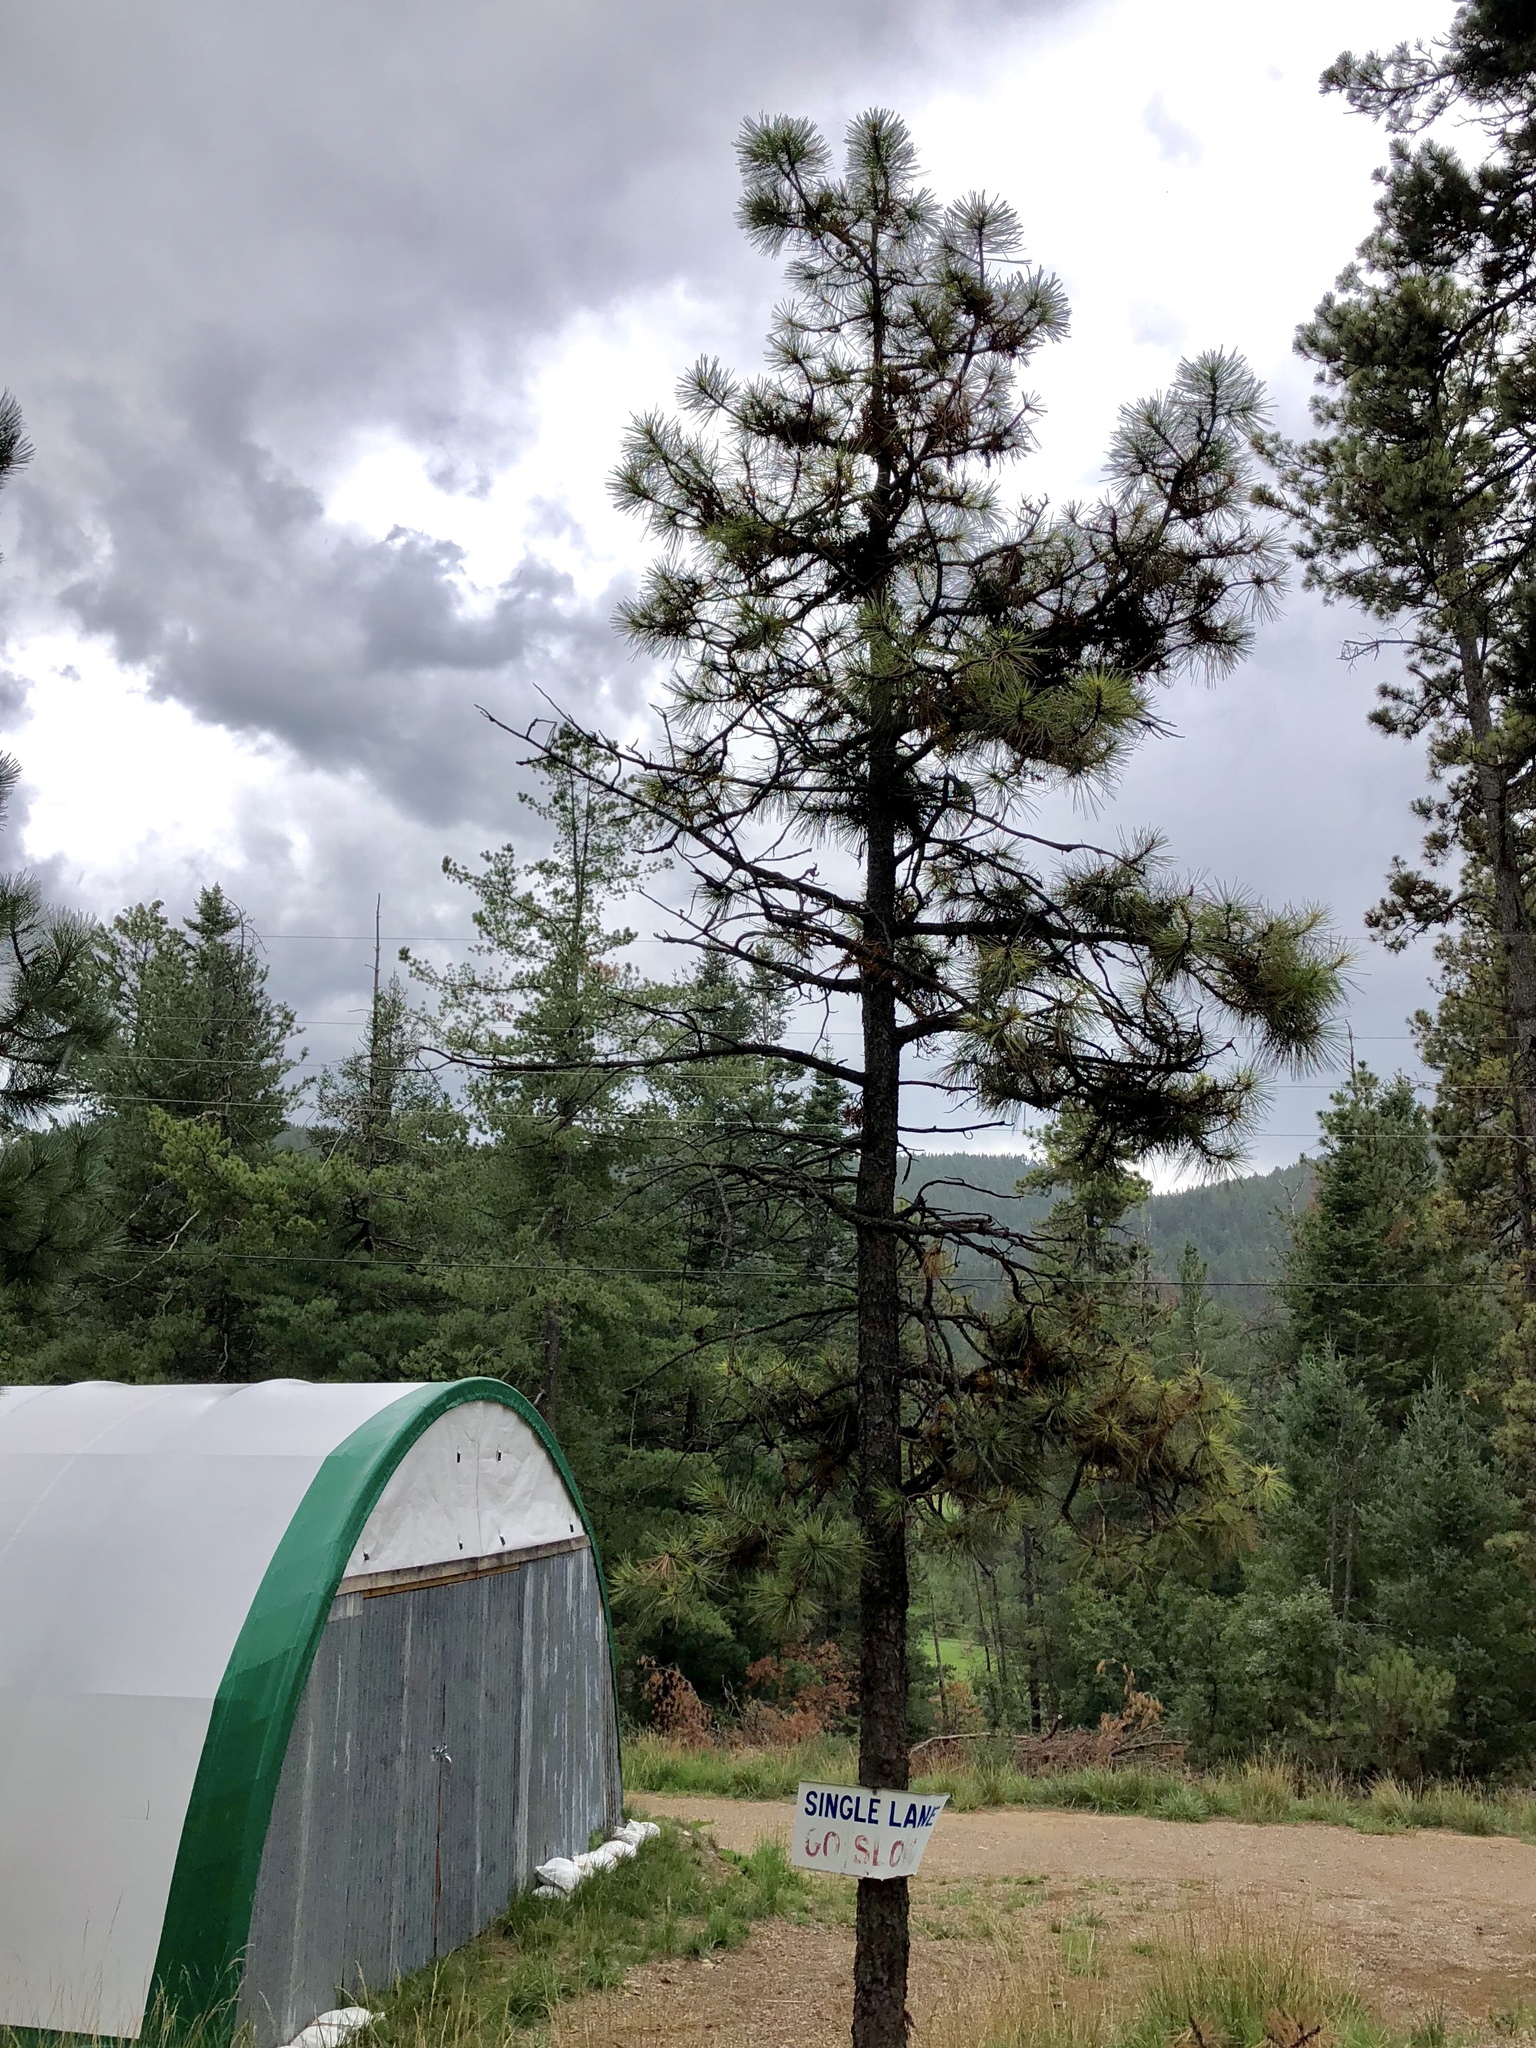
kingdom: Plantae
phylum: Tracheophyta
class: Pinopsida
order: Pinales
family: Pinaceae
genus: Pinus
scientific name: Pinus ponderosa
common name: Western yellow-pine
